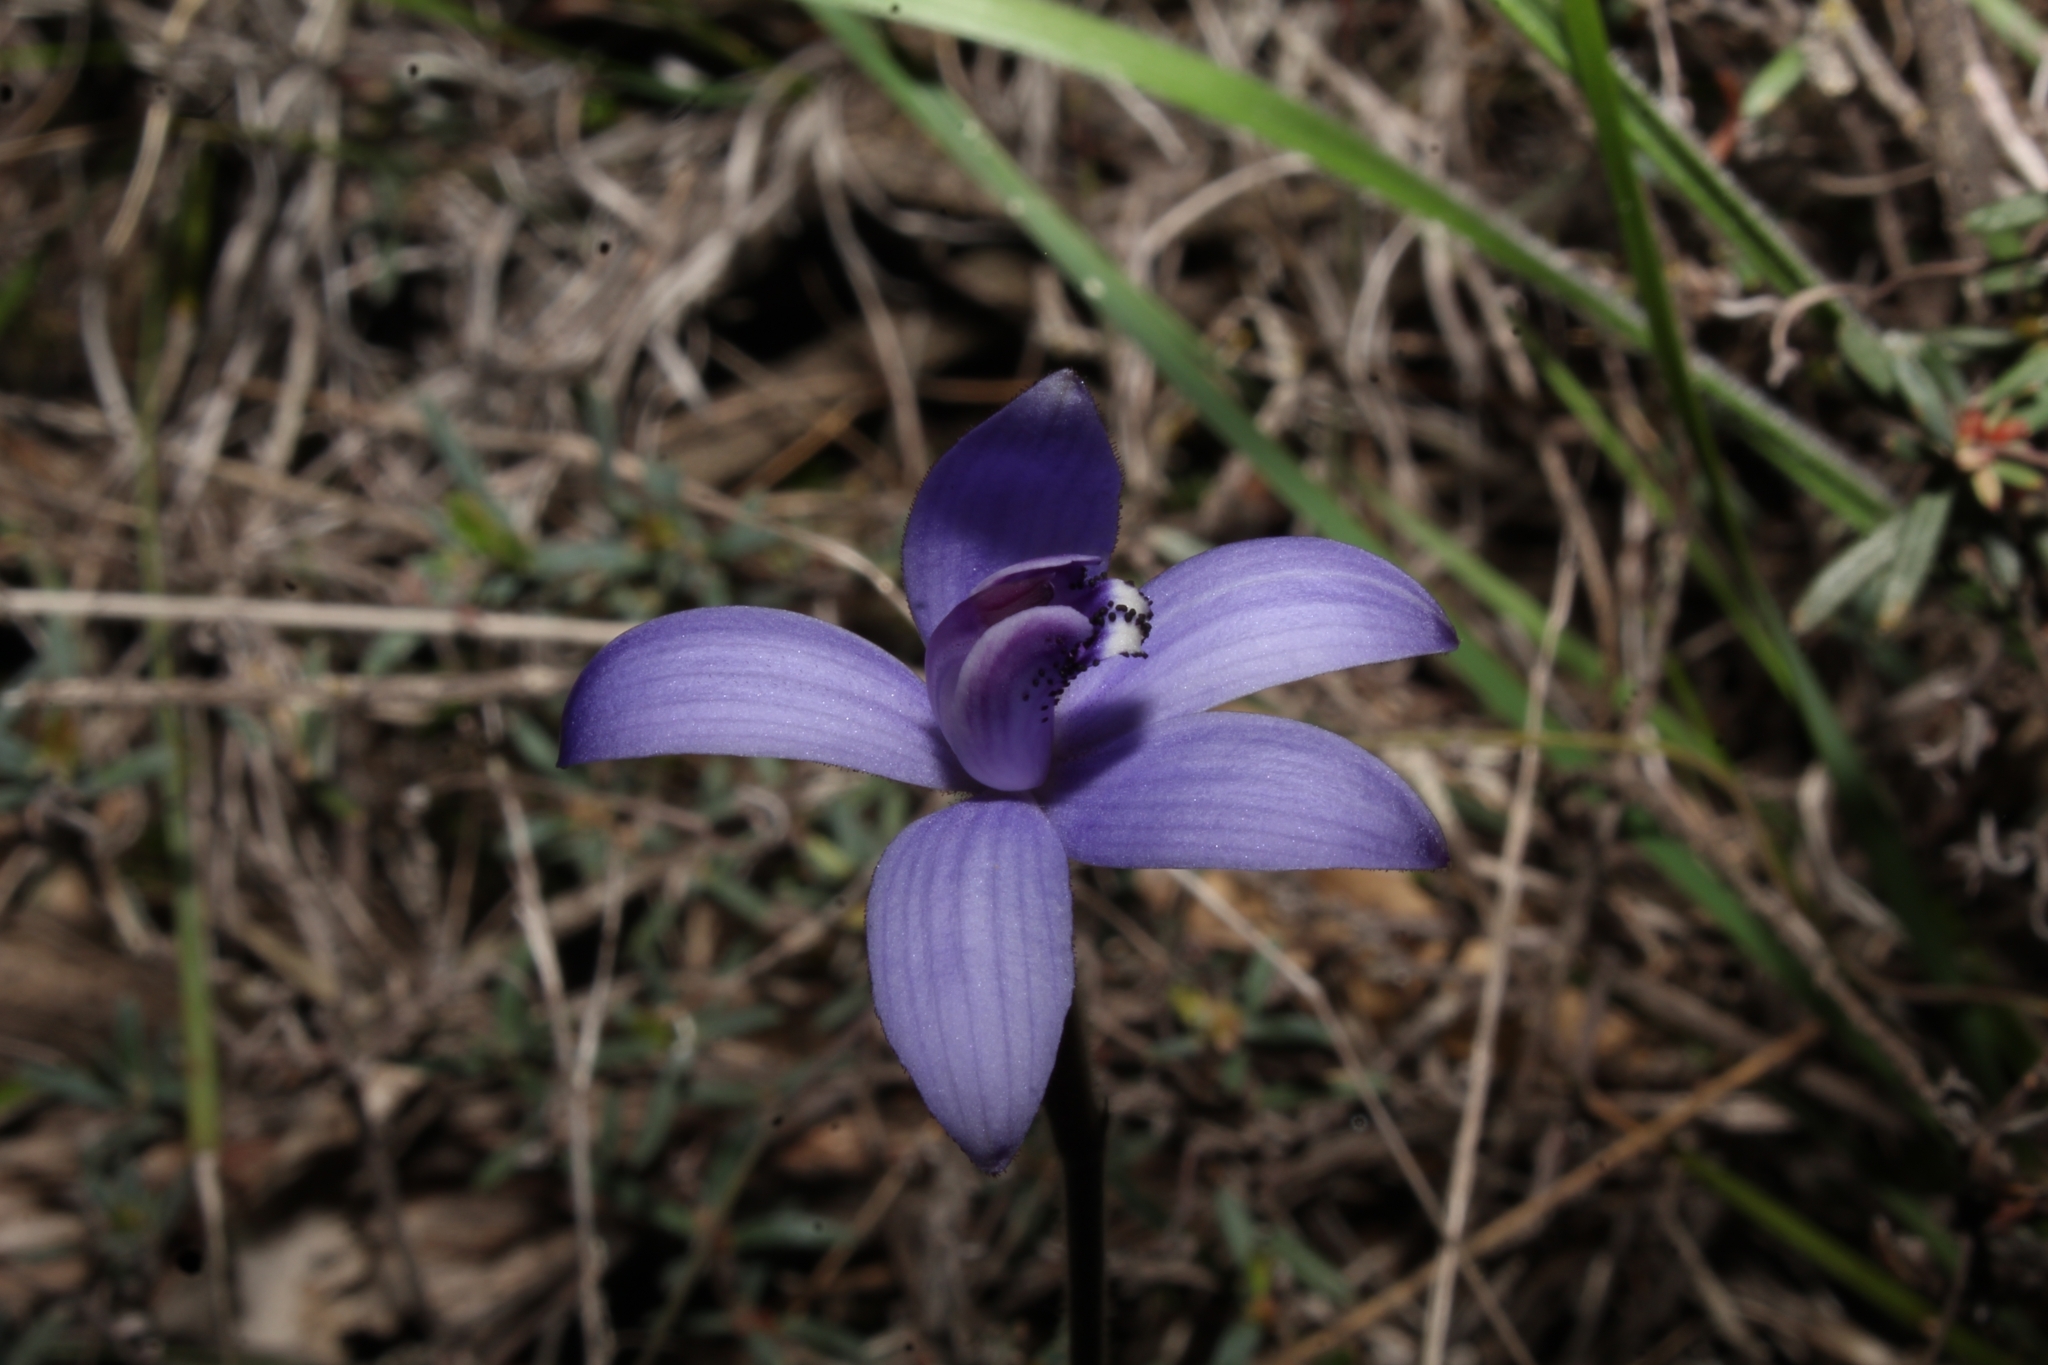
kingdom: Plantae
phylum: Tracheophyta
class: Liliopsida
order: Asparagales
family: Orchidaceae
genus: Caladenia
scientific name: Caladenia sericea
